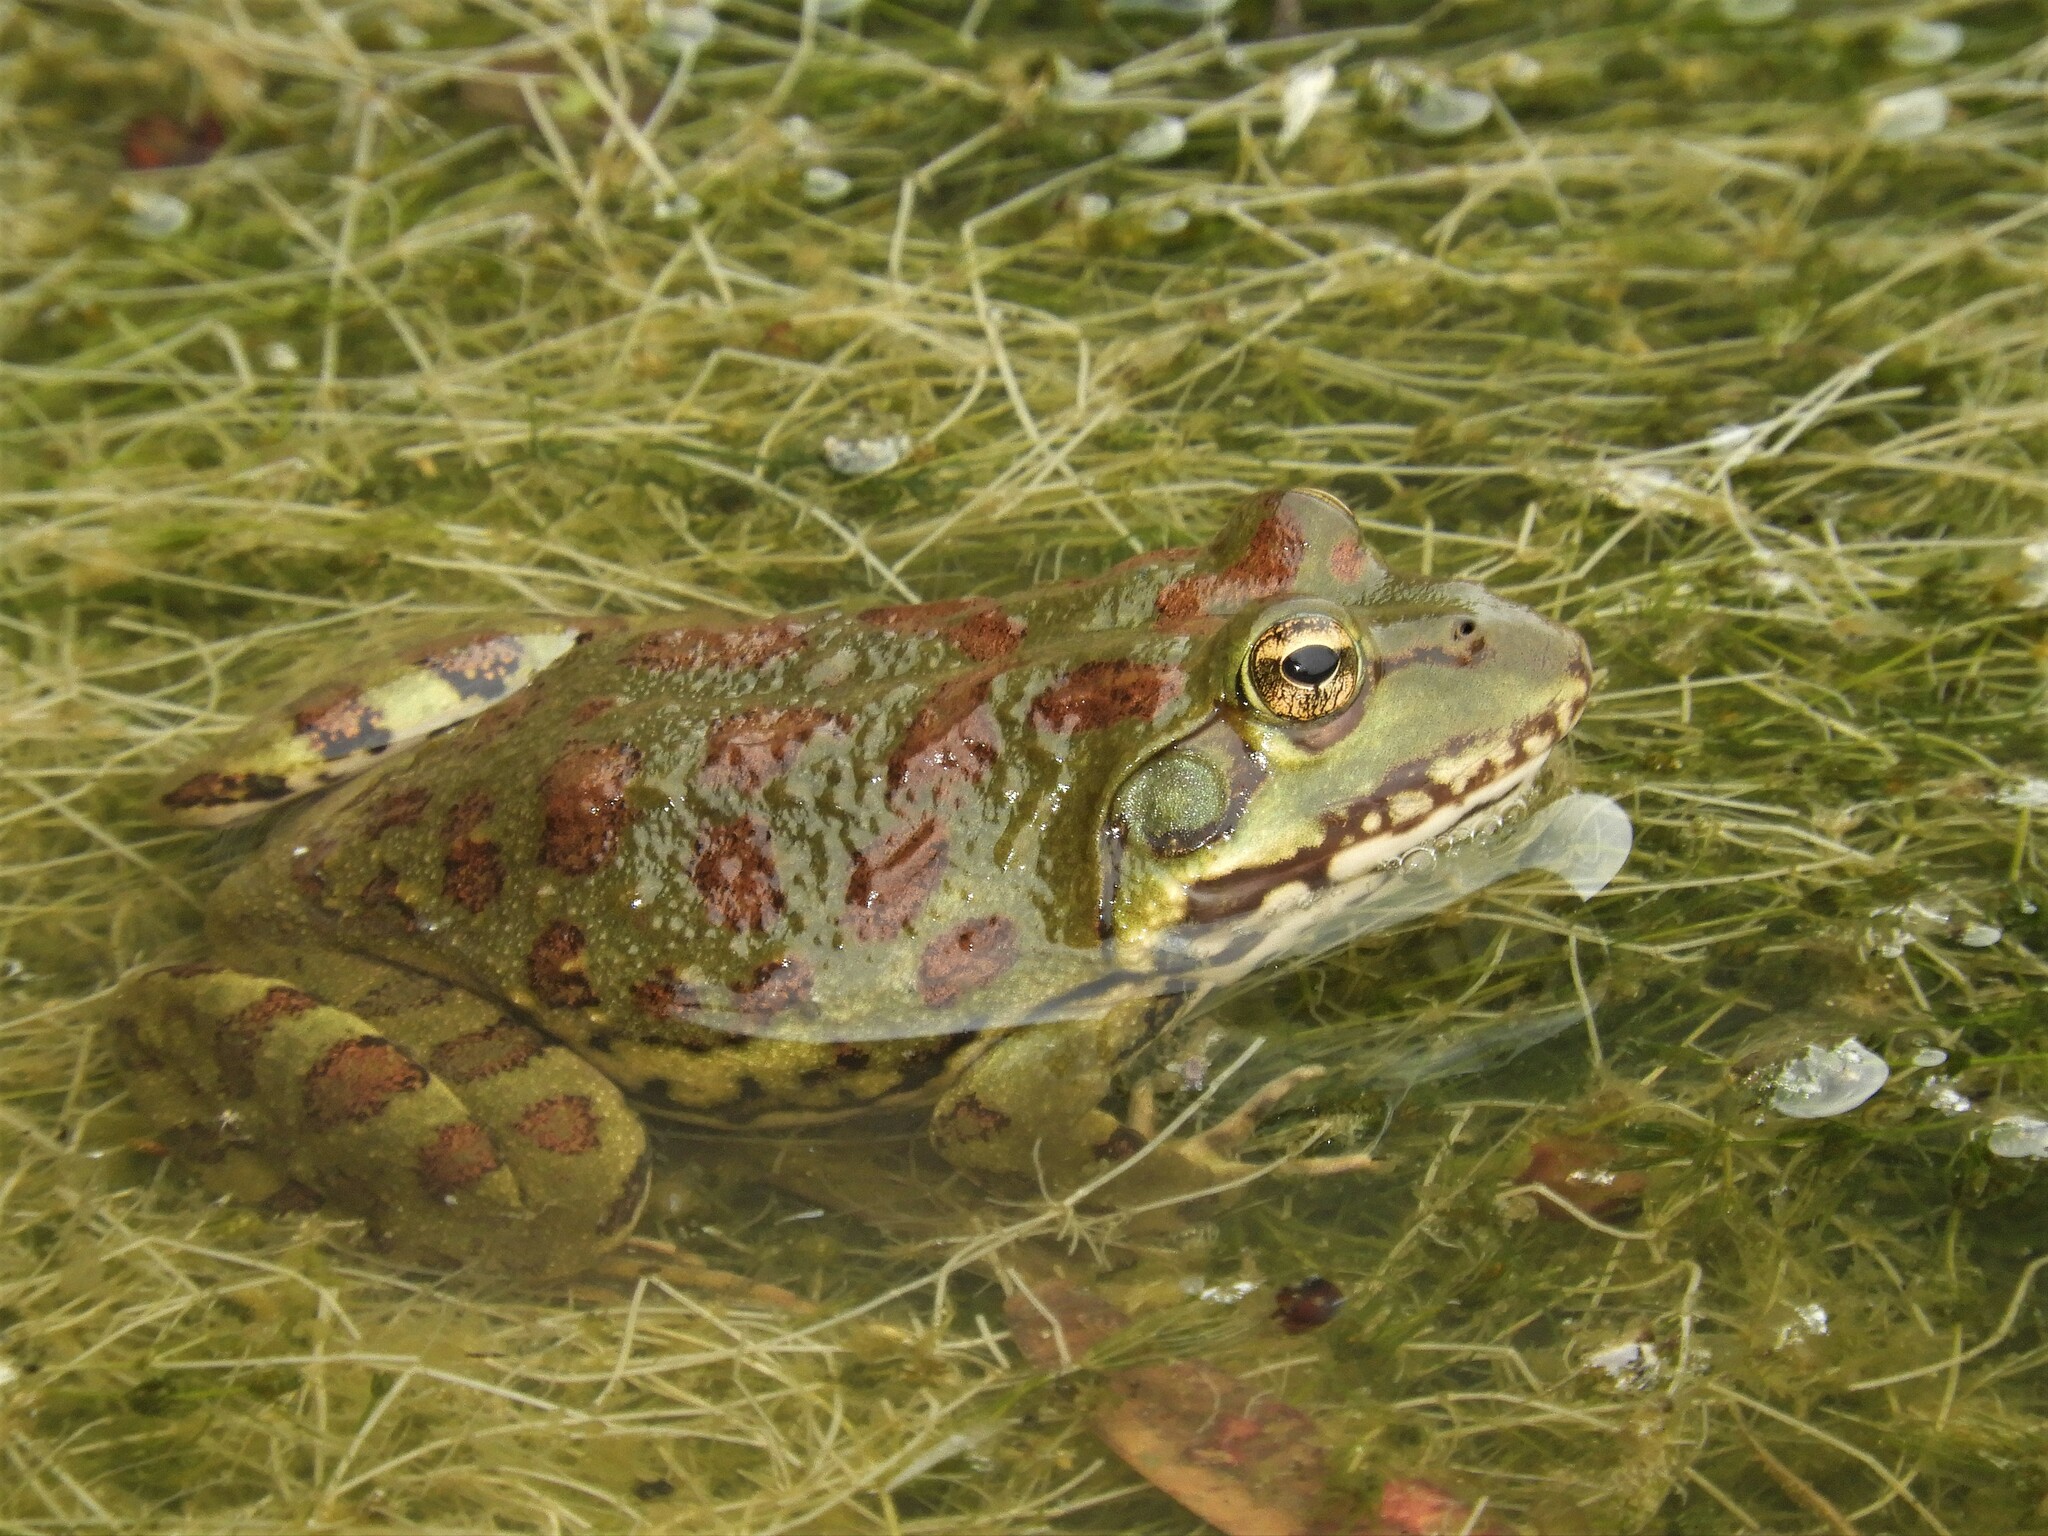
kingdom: Animalia
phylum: Chordata
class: Amphibia
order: Anura
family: Pyxicephalidae
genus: Amietia
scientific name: Amietia poyntoni
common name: Poynton's river frog
